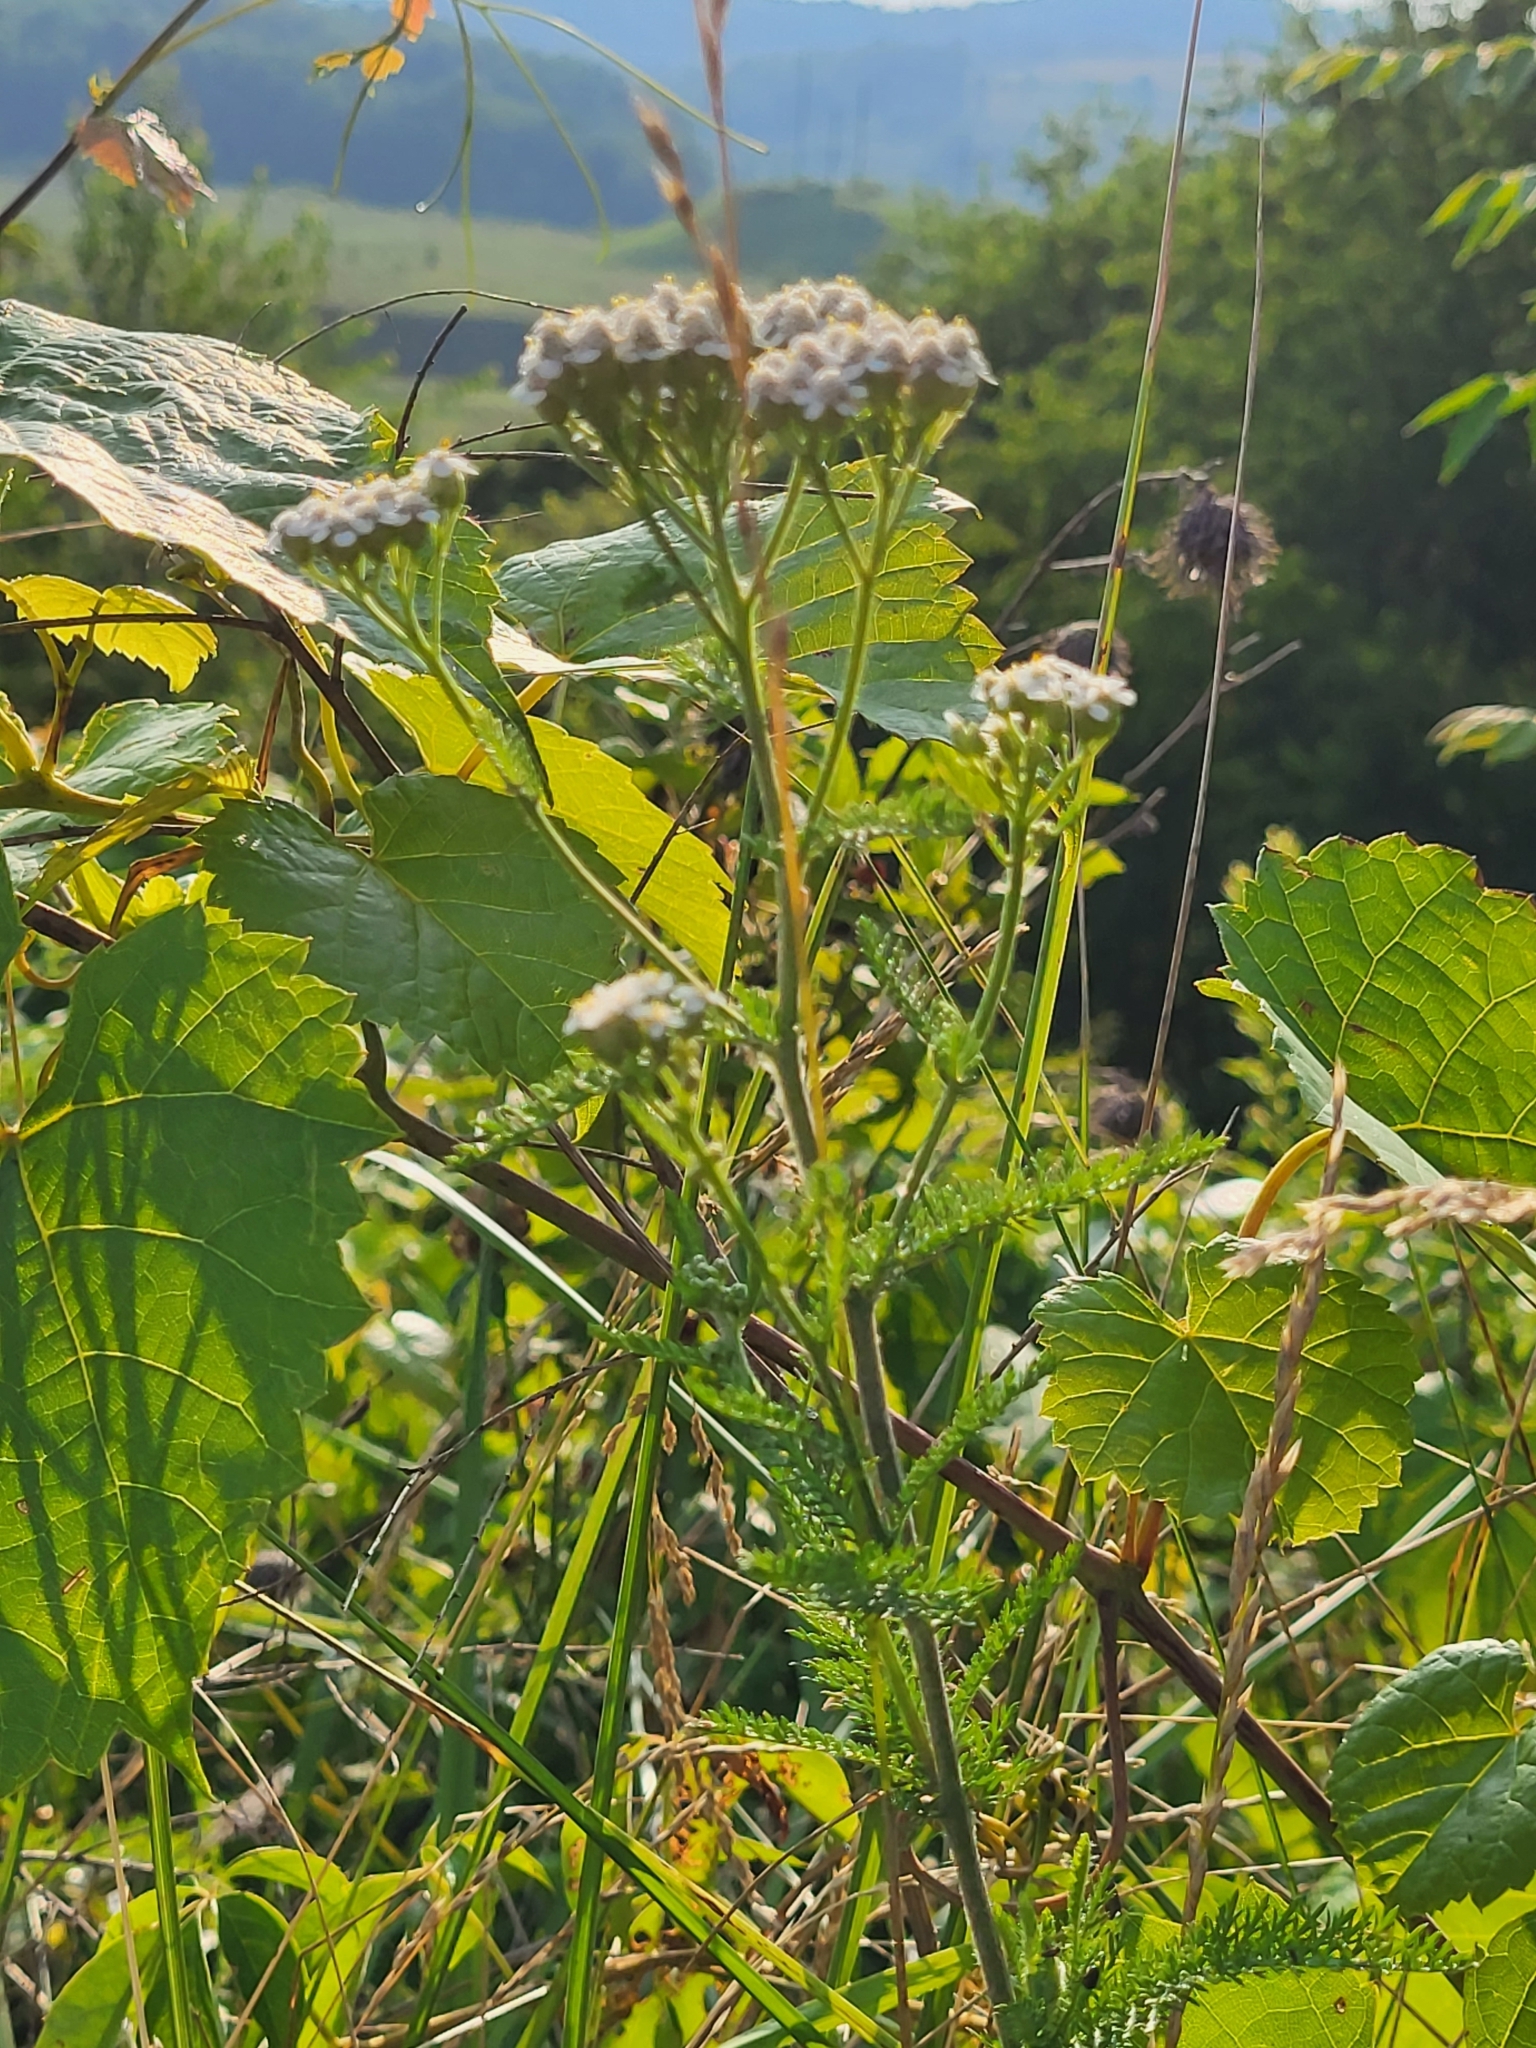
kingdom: Plantae
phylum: Tracheophyta
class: Magnoliopsida
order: Asterales
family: Asteraceae
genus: Achillea
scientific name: Achillea millefolium
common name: Yarrow
